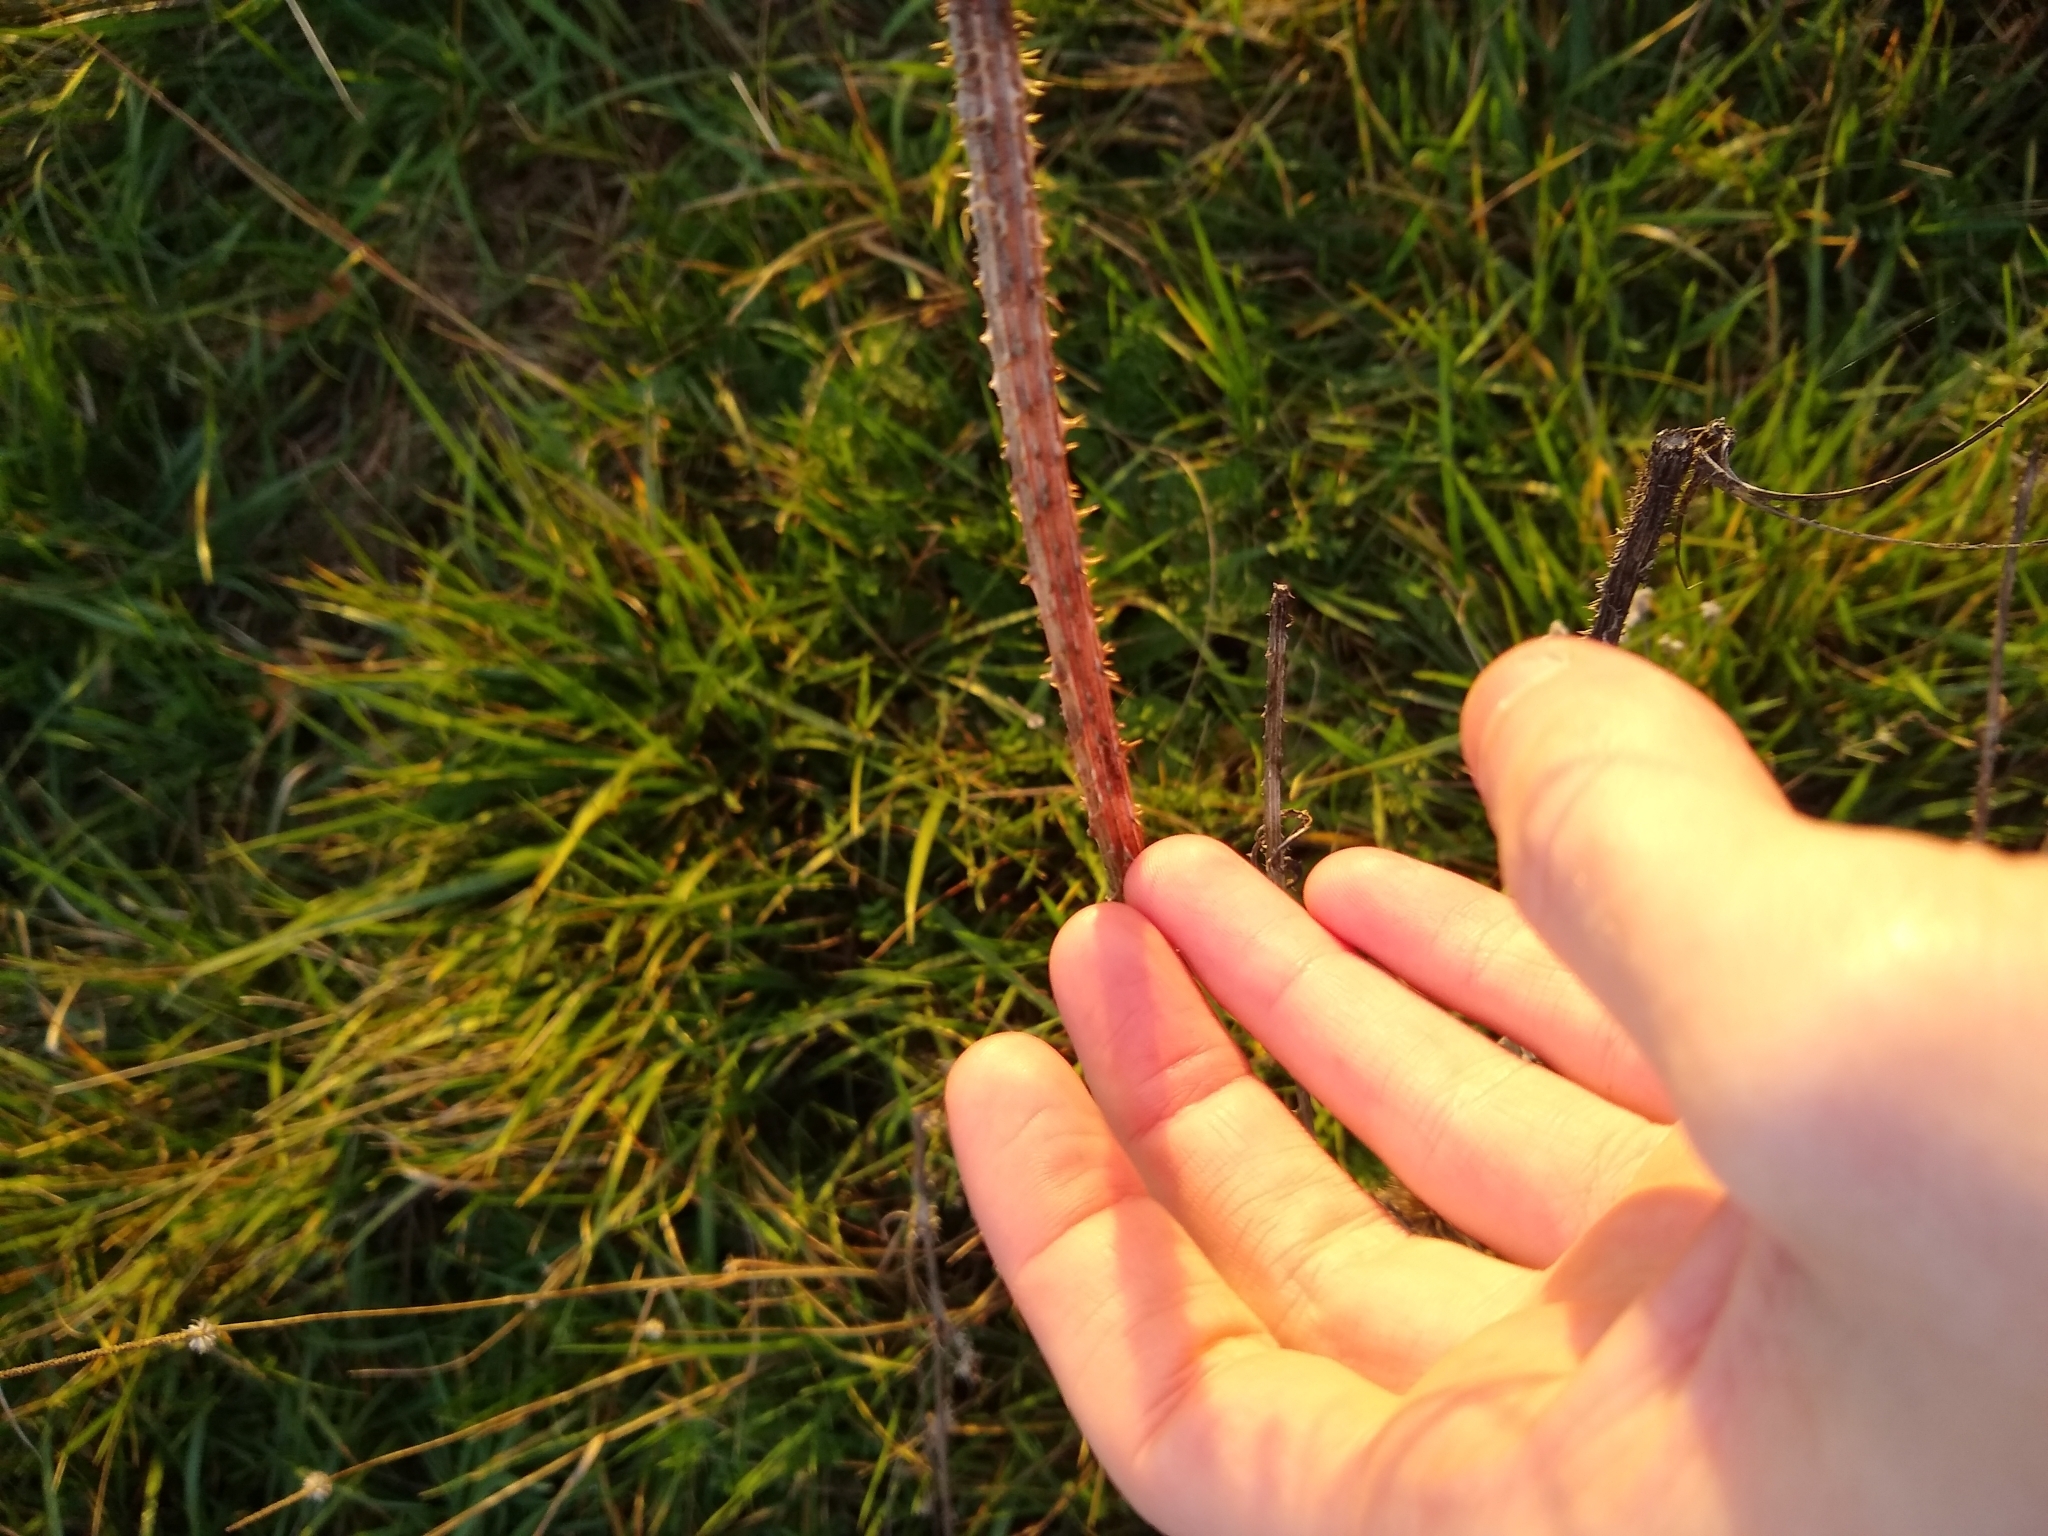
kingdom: Plantae
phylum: Tracheophyta
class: Magnoliopsida
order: Dipsacales
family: Caprifoliaceae
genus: Dipsacus
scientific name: Dipsacus fullonum
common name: Teasel
